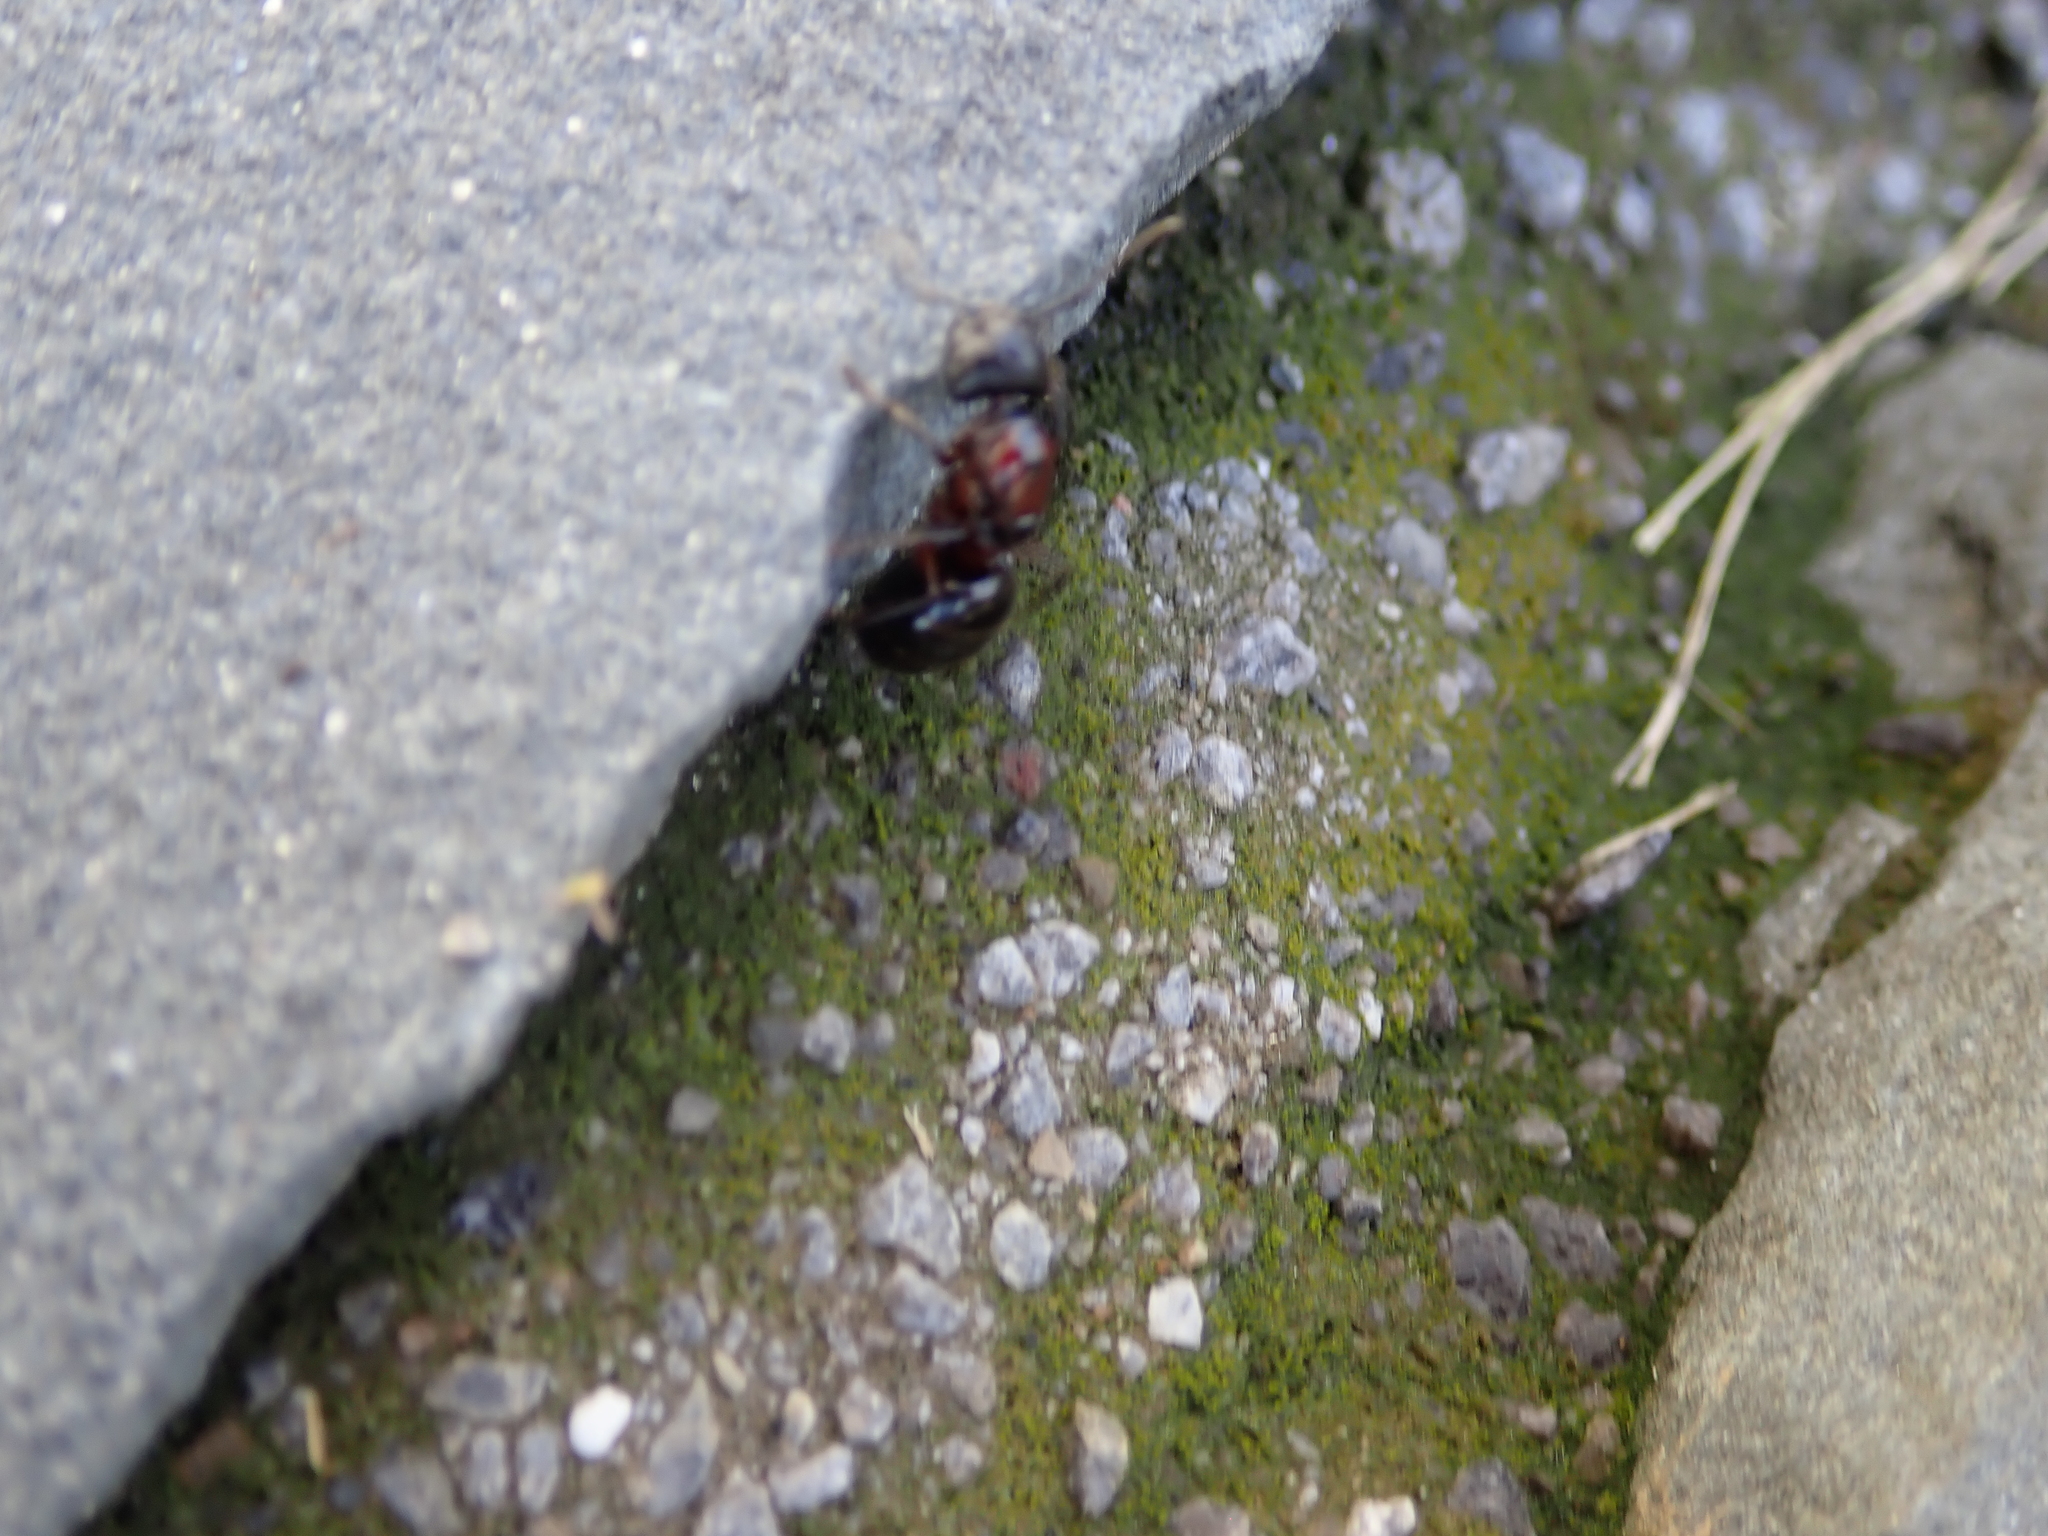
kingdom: Animalia
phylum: Arthropoda
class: Insecta
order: Hymenoptera
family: Formicidae
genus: Camponotus
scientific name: Camponotus novaeboracensis
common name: New york carpenter ant
